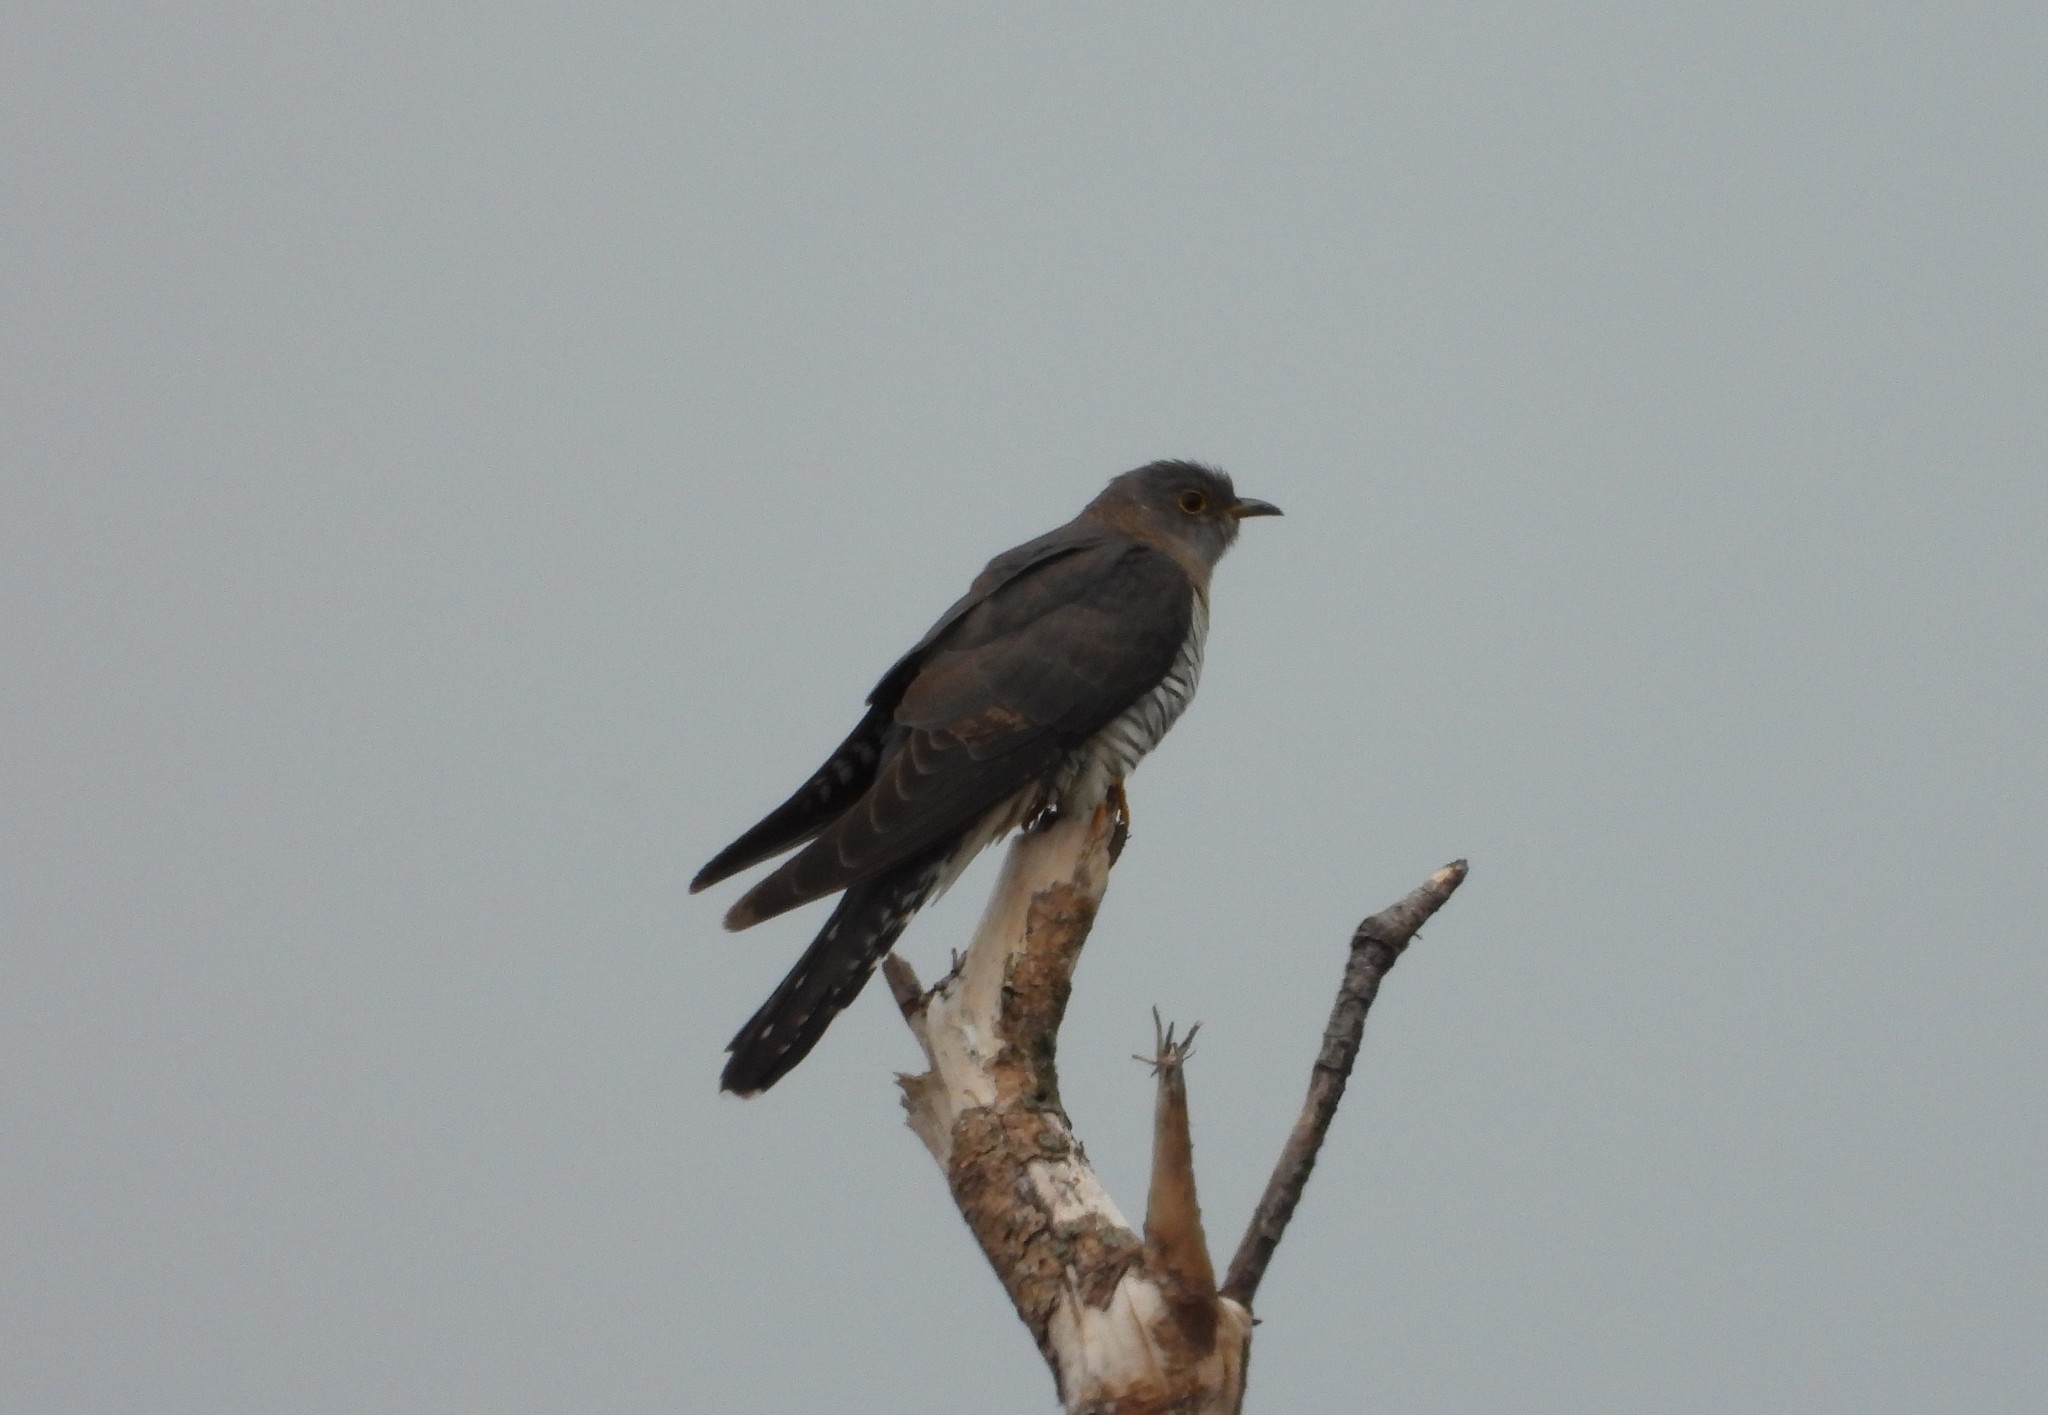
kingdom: Animalia
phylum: Chordata
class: Aves
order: Cuculiformes
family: Cuculidae
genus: Cuculus
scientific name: Cuculus canorus
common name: Common cuckoo
